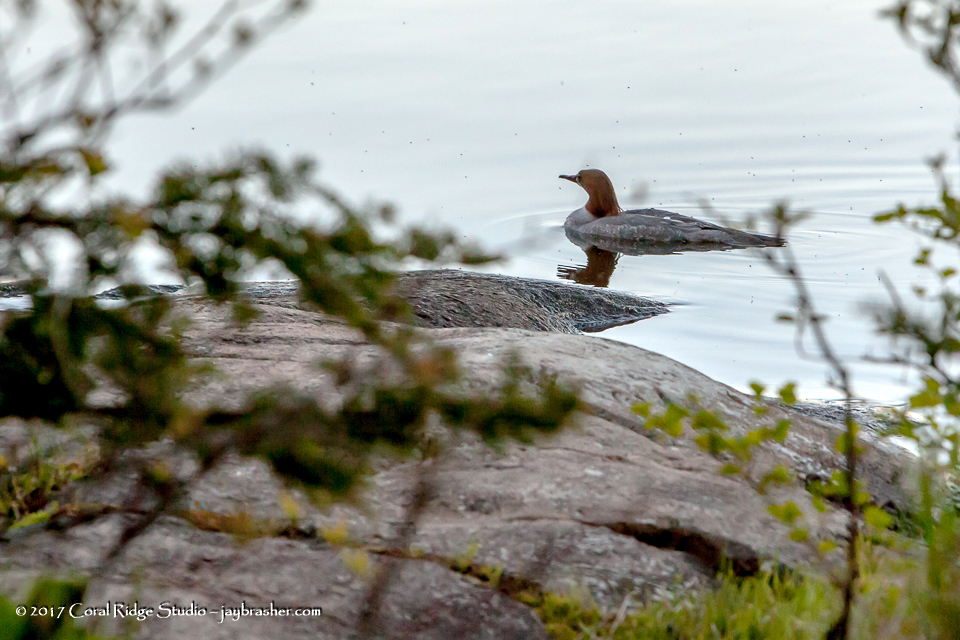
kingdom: Animalia
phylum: Chordata
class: Aves
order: Anseriformes
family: Anatidae
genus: Mergus
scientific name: Mergus merganser
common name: Common merganser
